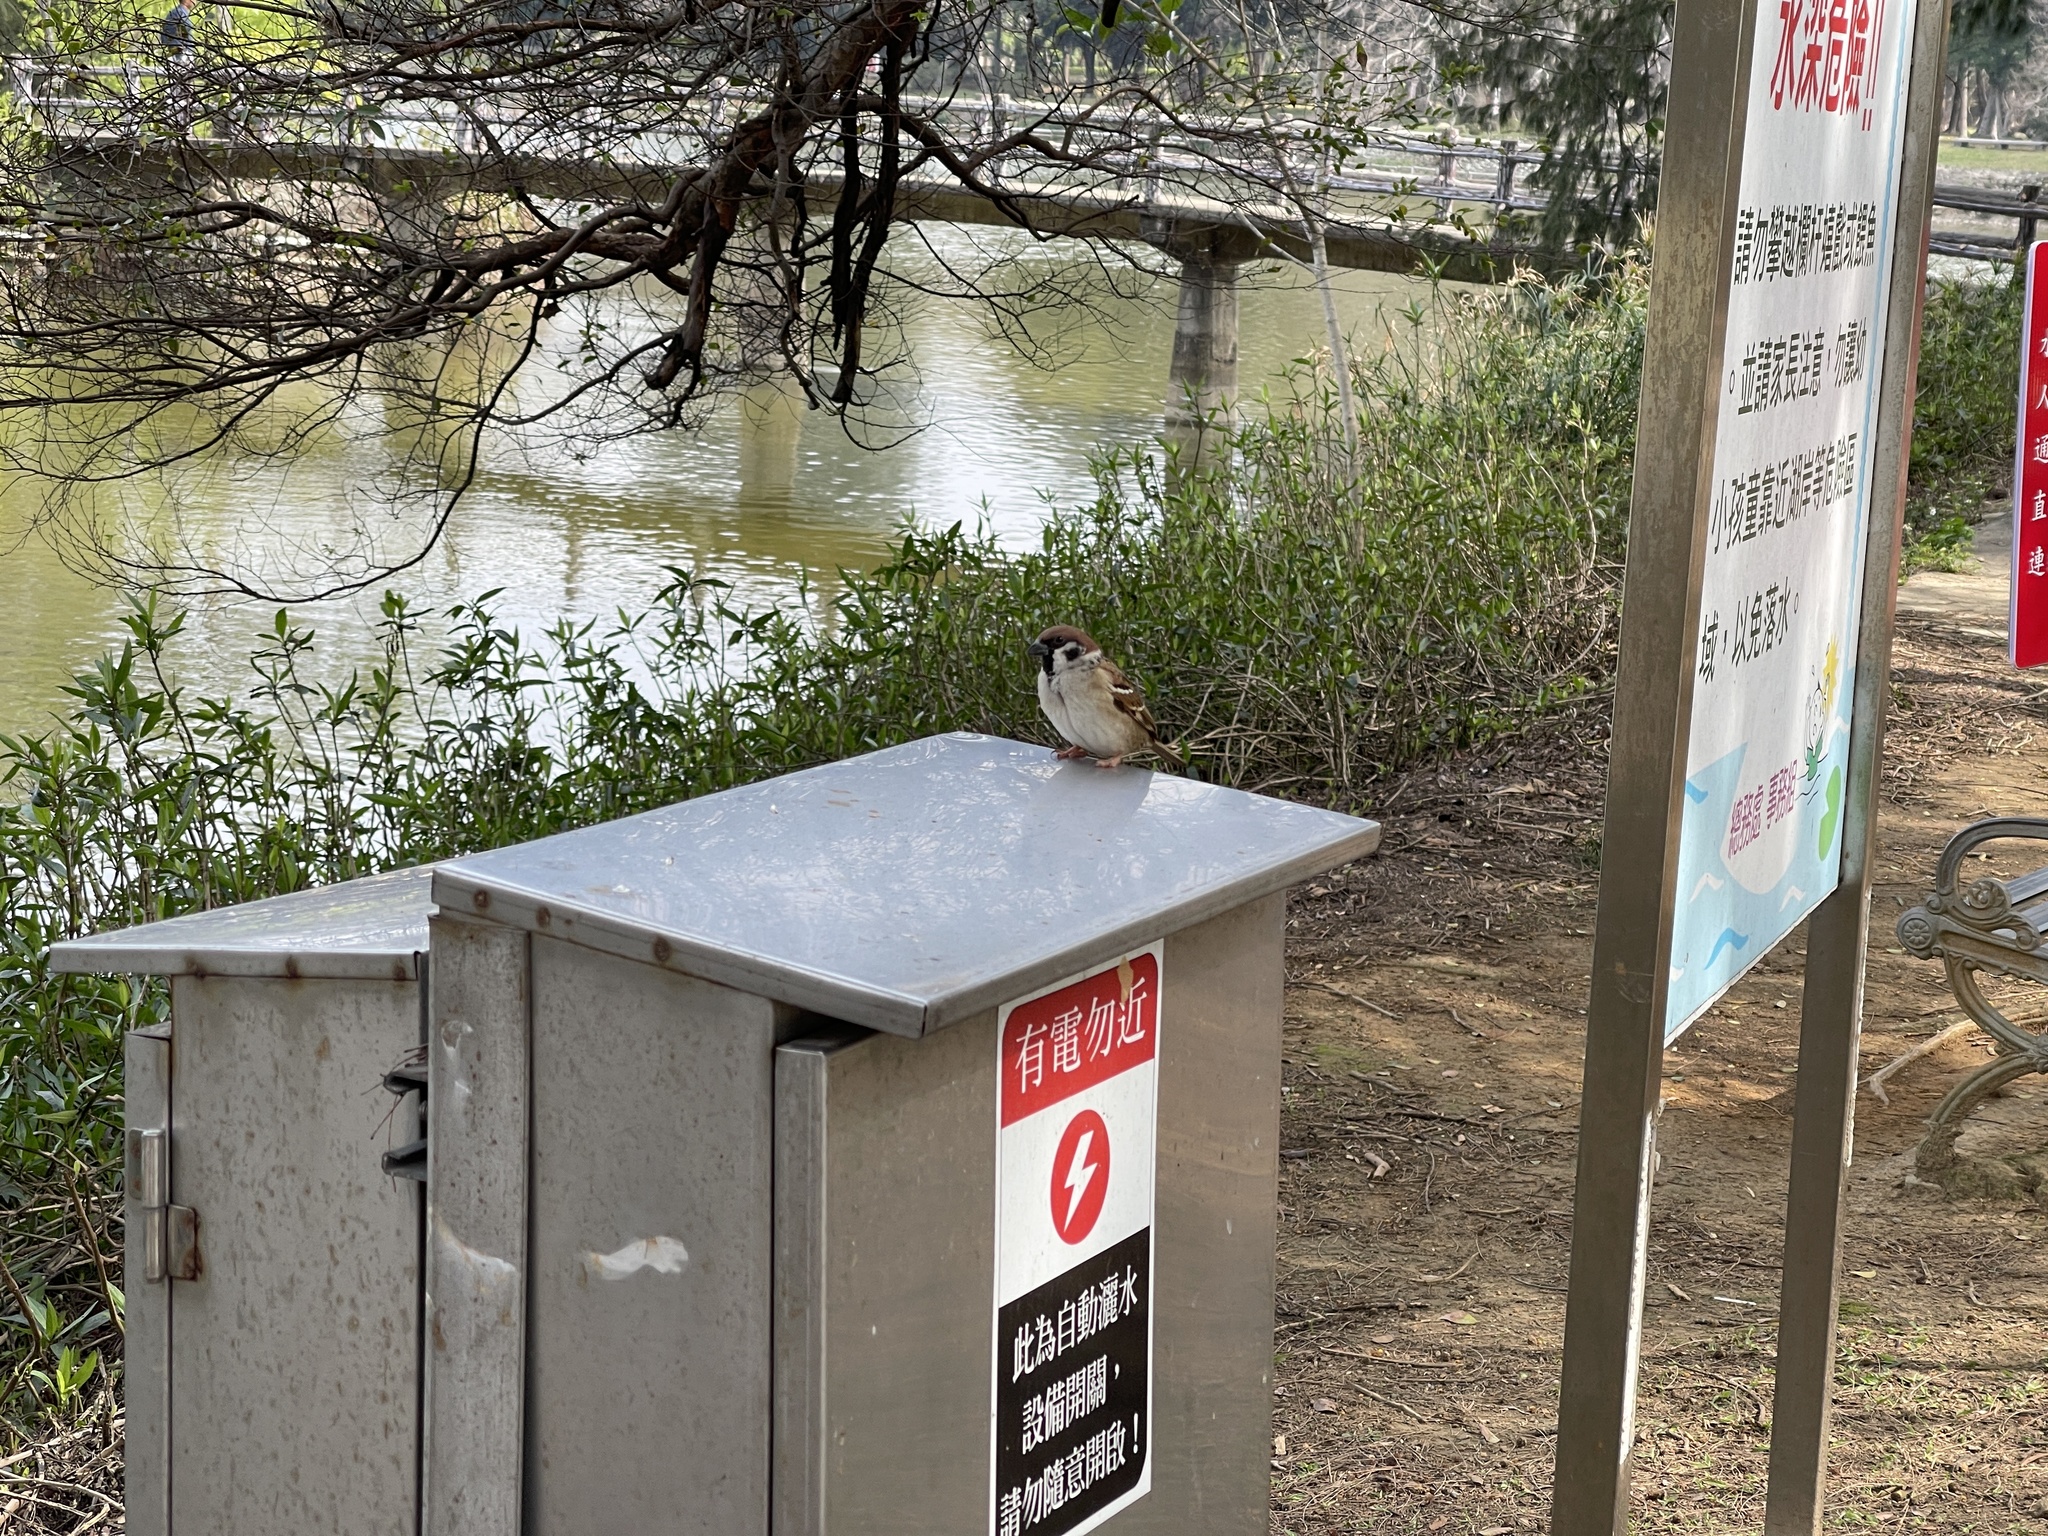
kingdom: Animalia
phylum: Chordata
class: Aves
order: Passeriformes
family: Passeridae
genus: Passer
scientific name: Passer montanus
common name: Eurasian tree sparrow
